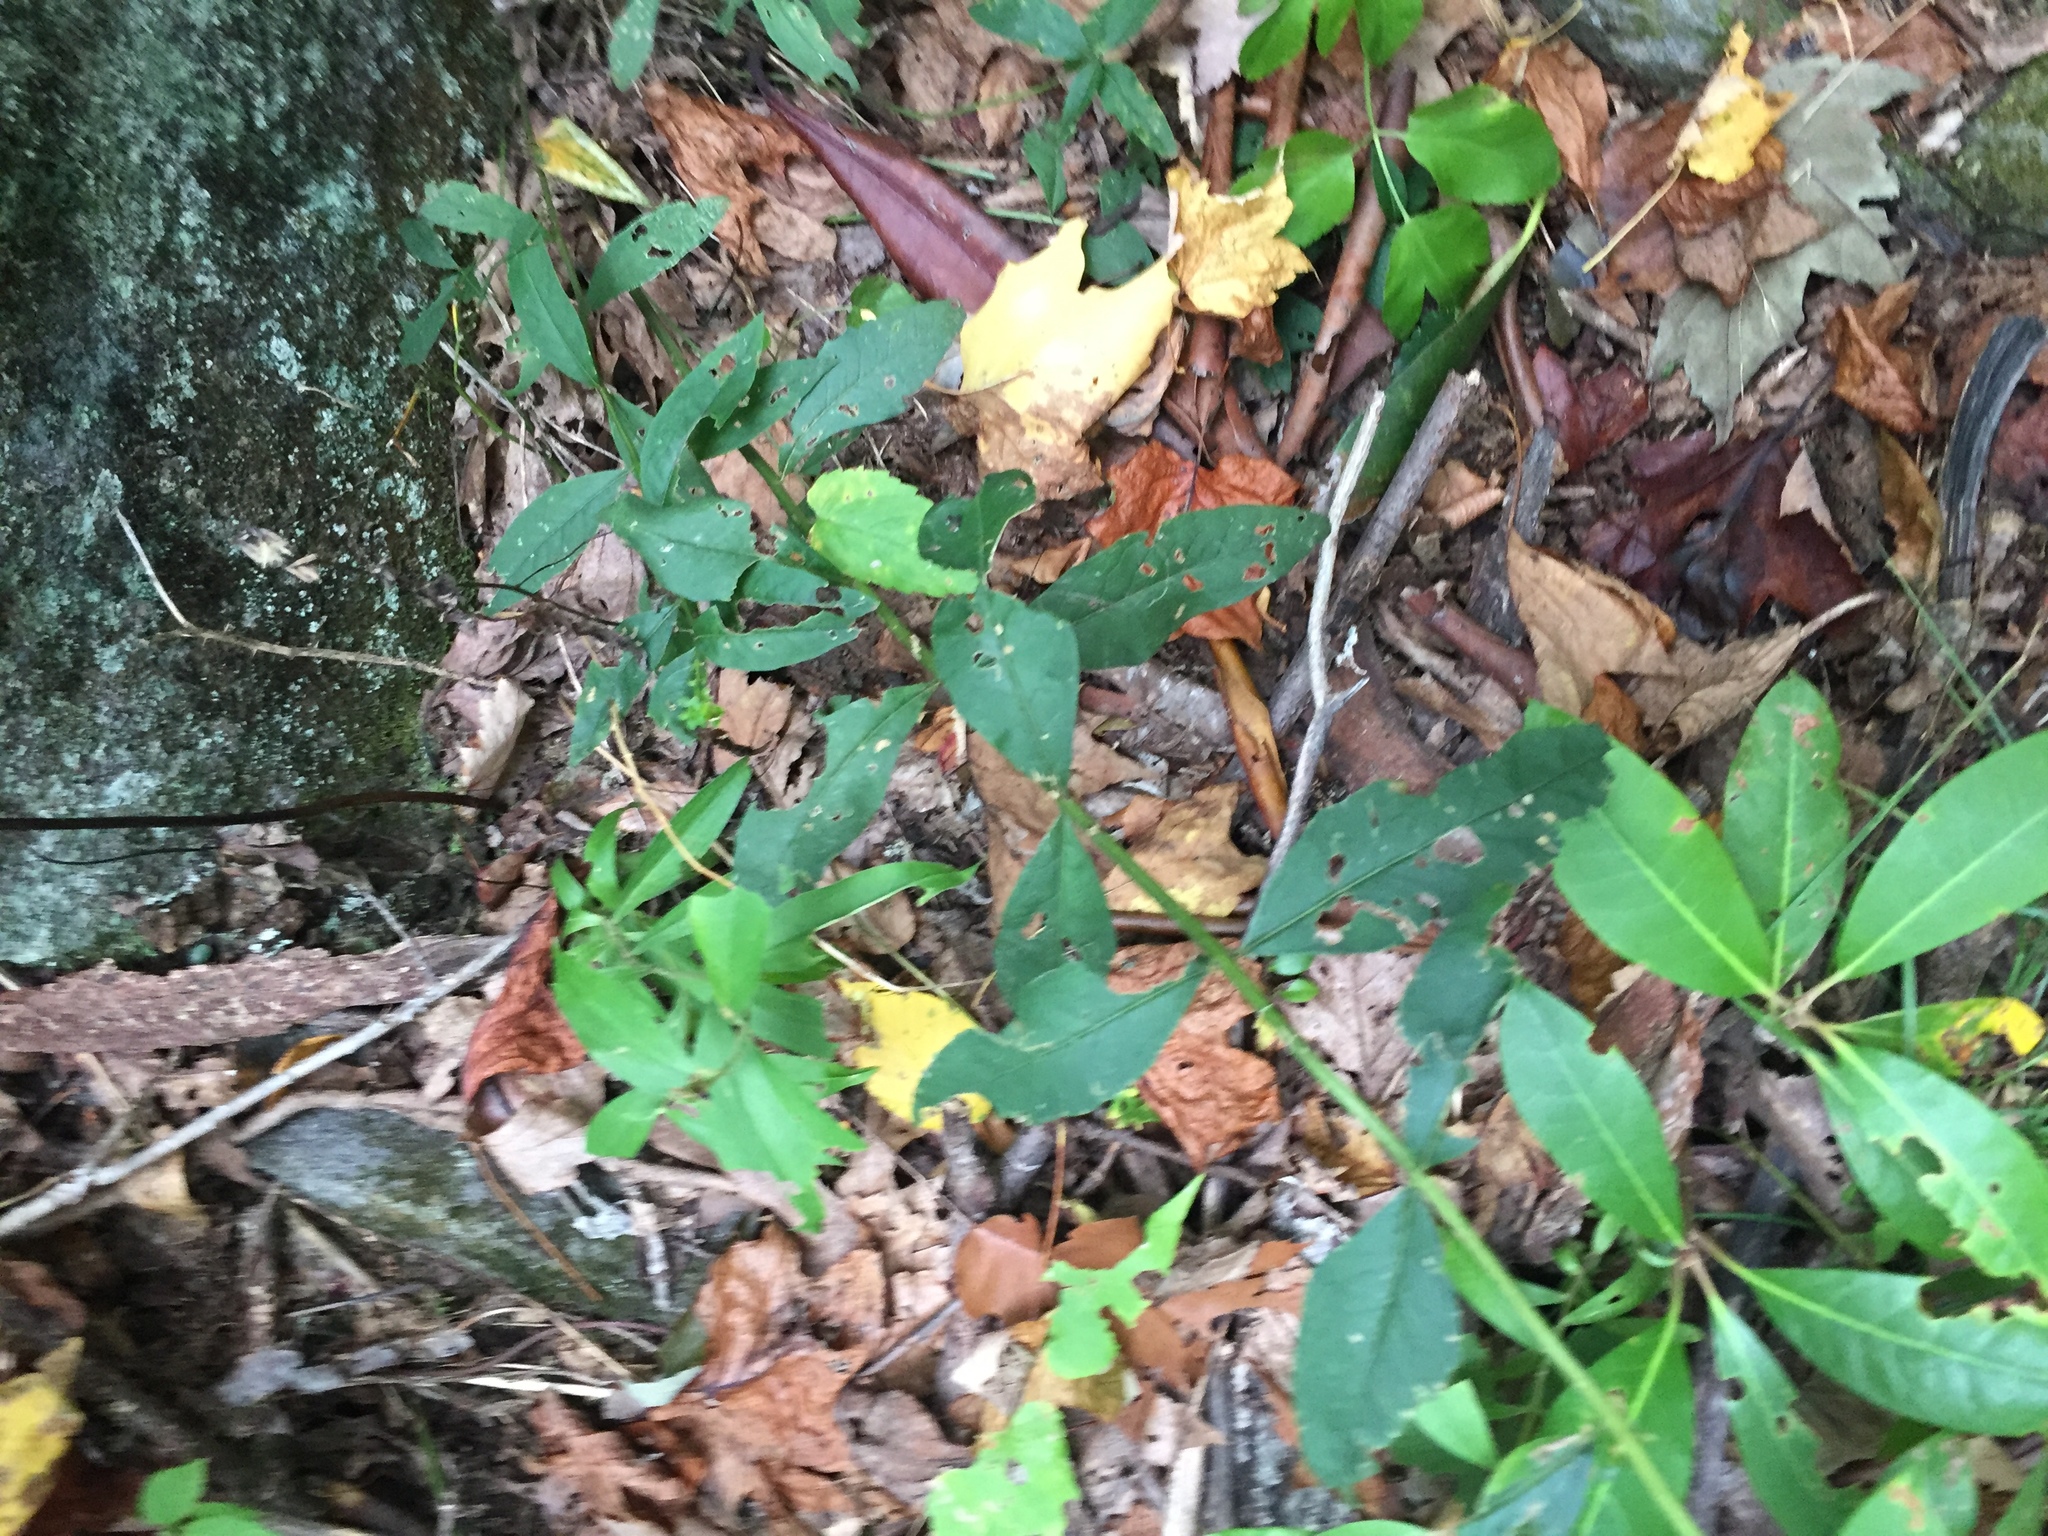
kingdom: Plantae
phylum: Tracheophyta
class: Magnoliopsida
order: Lamiales
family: Orobanchaceae
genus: Aureolaria
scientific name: Aureolaria levigata
